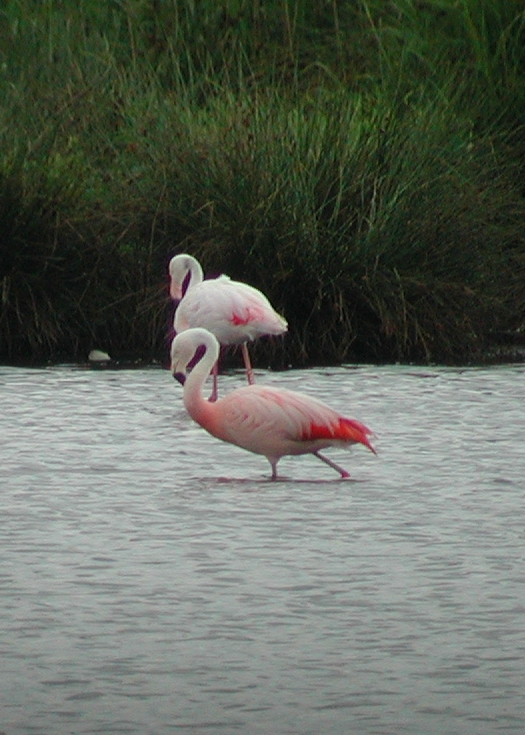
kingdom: Animalia
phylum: Chordata
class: Aves
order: Phoenicopteriformes
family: Phoenicopteridae
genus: Phoenicopterus
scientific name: Phoenicopterus chilensis
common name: Chilean flamingo
